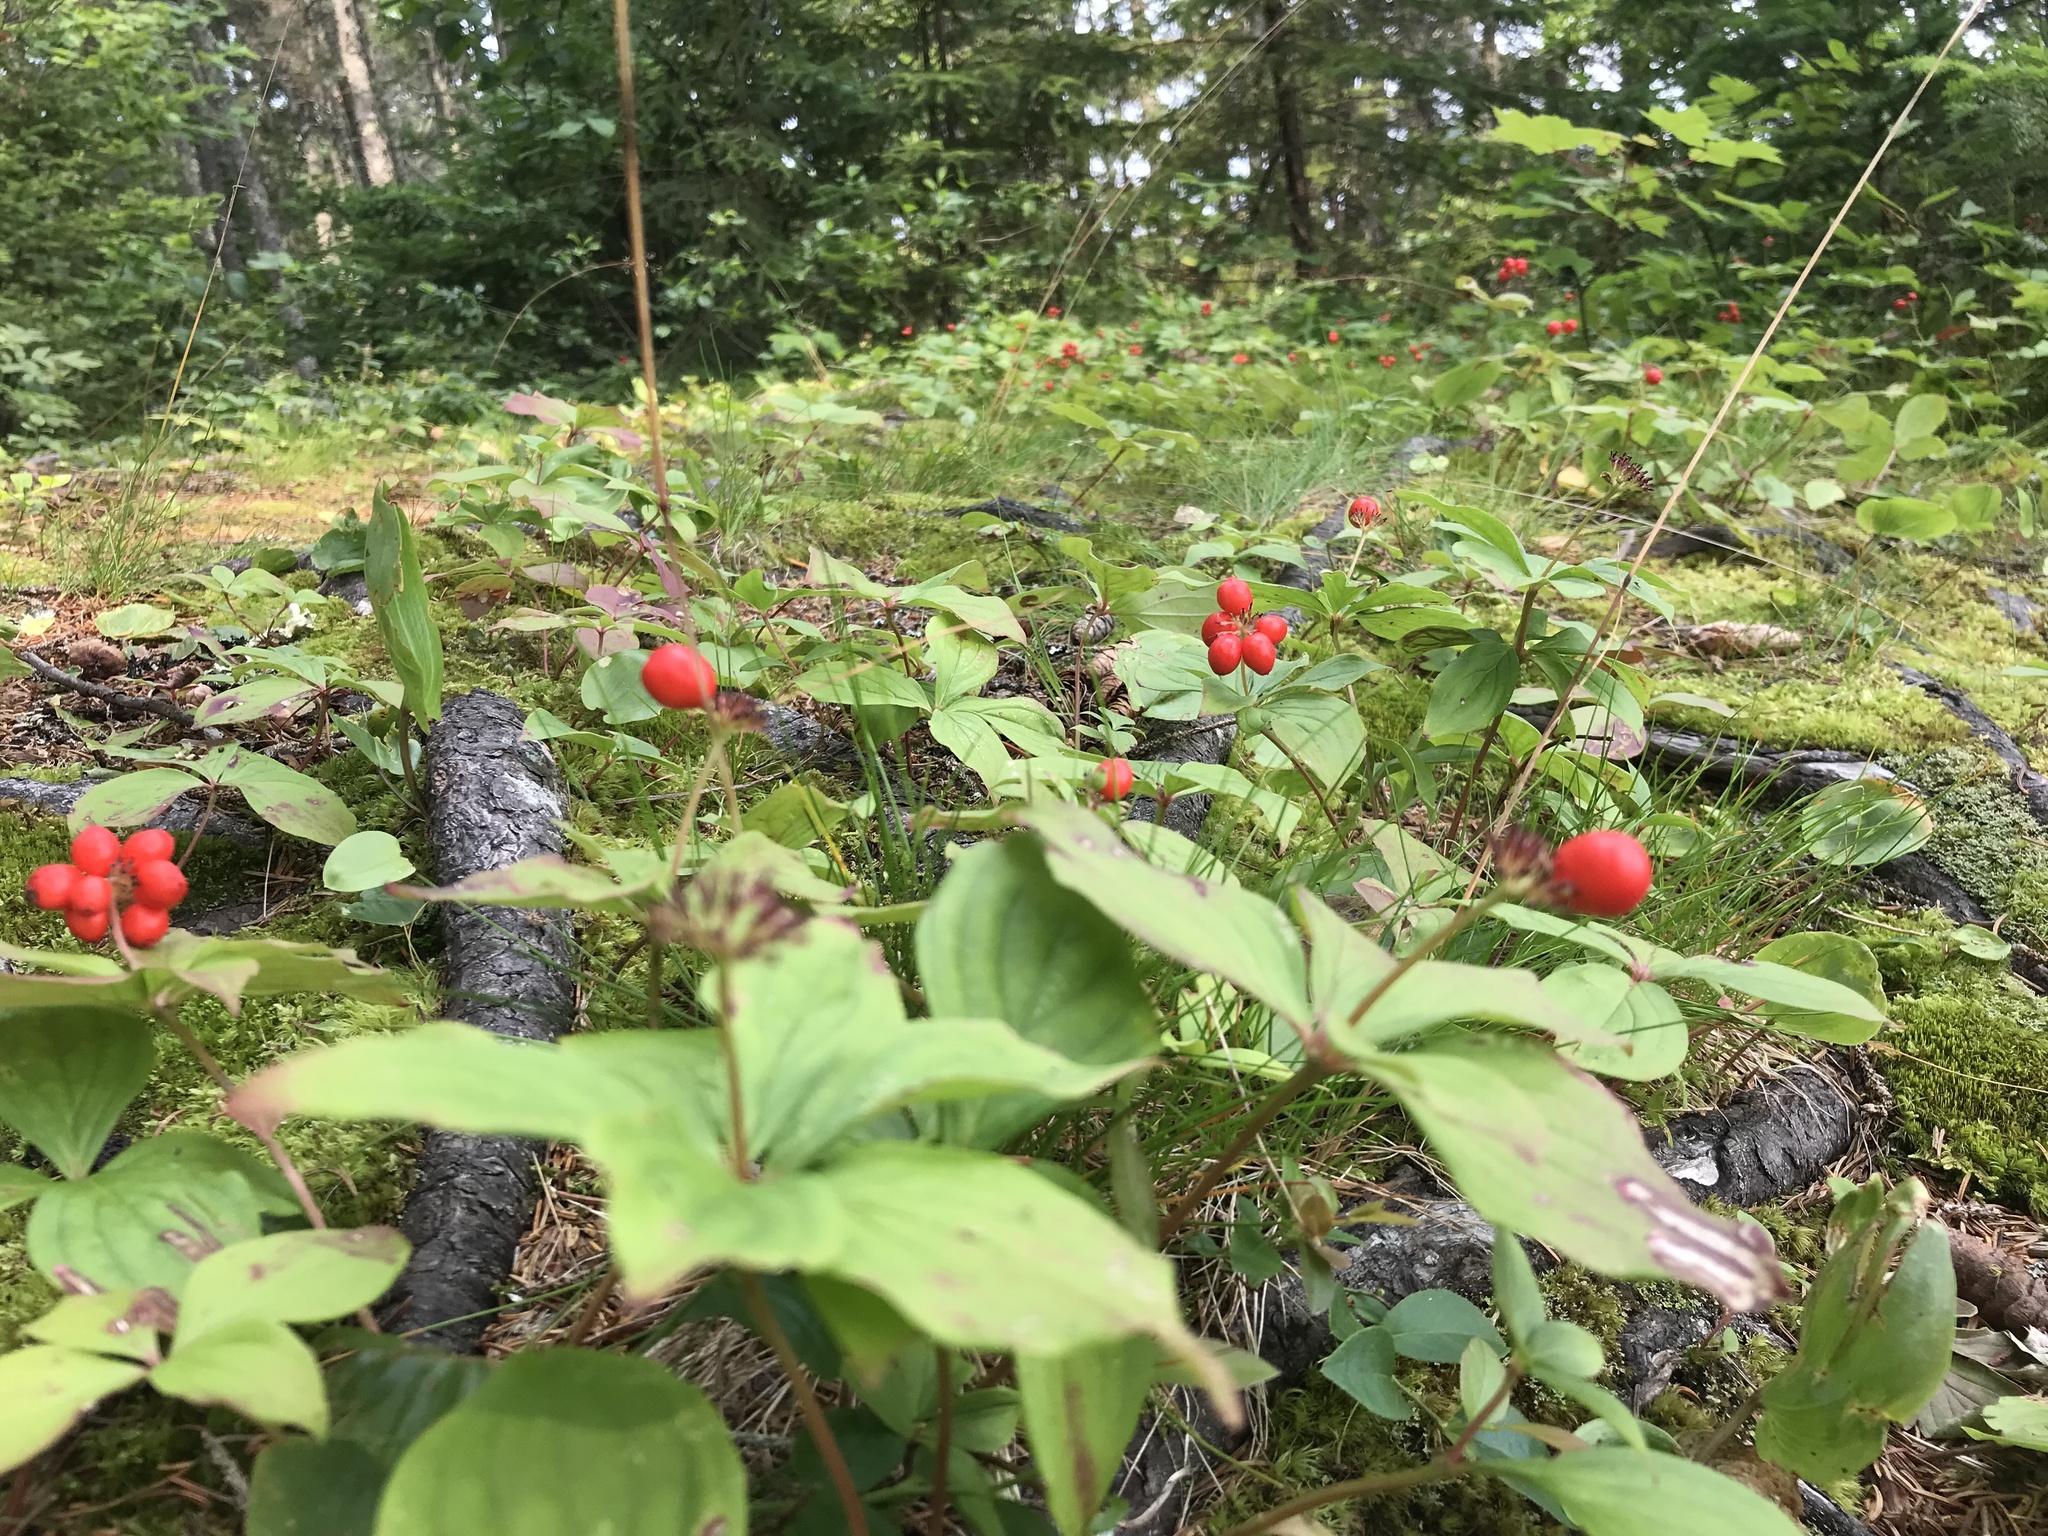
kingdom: Plantae
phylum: Tracheophyta
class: Magnoliopsida
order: Cornales
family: Cornaceae
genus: Cornus
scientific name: Cornus canadensis
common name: Creeping dogwood
